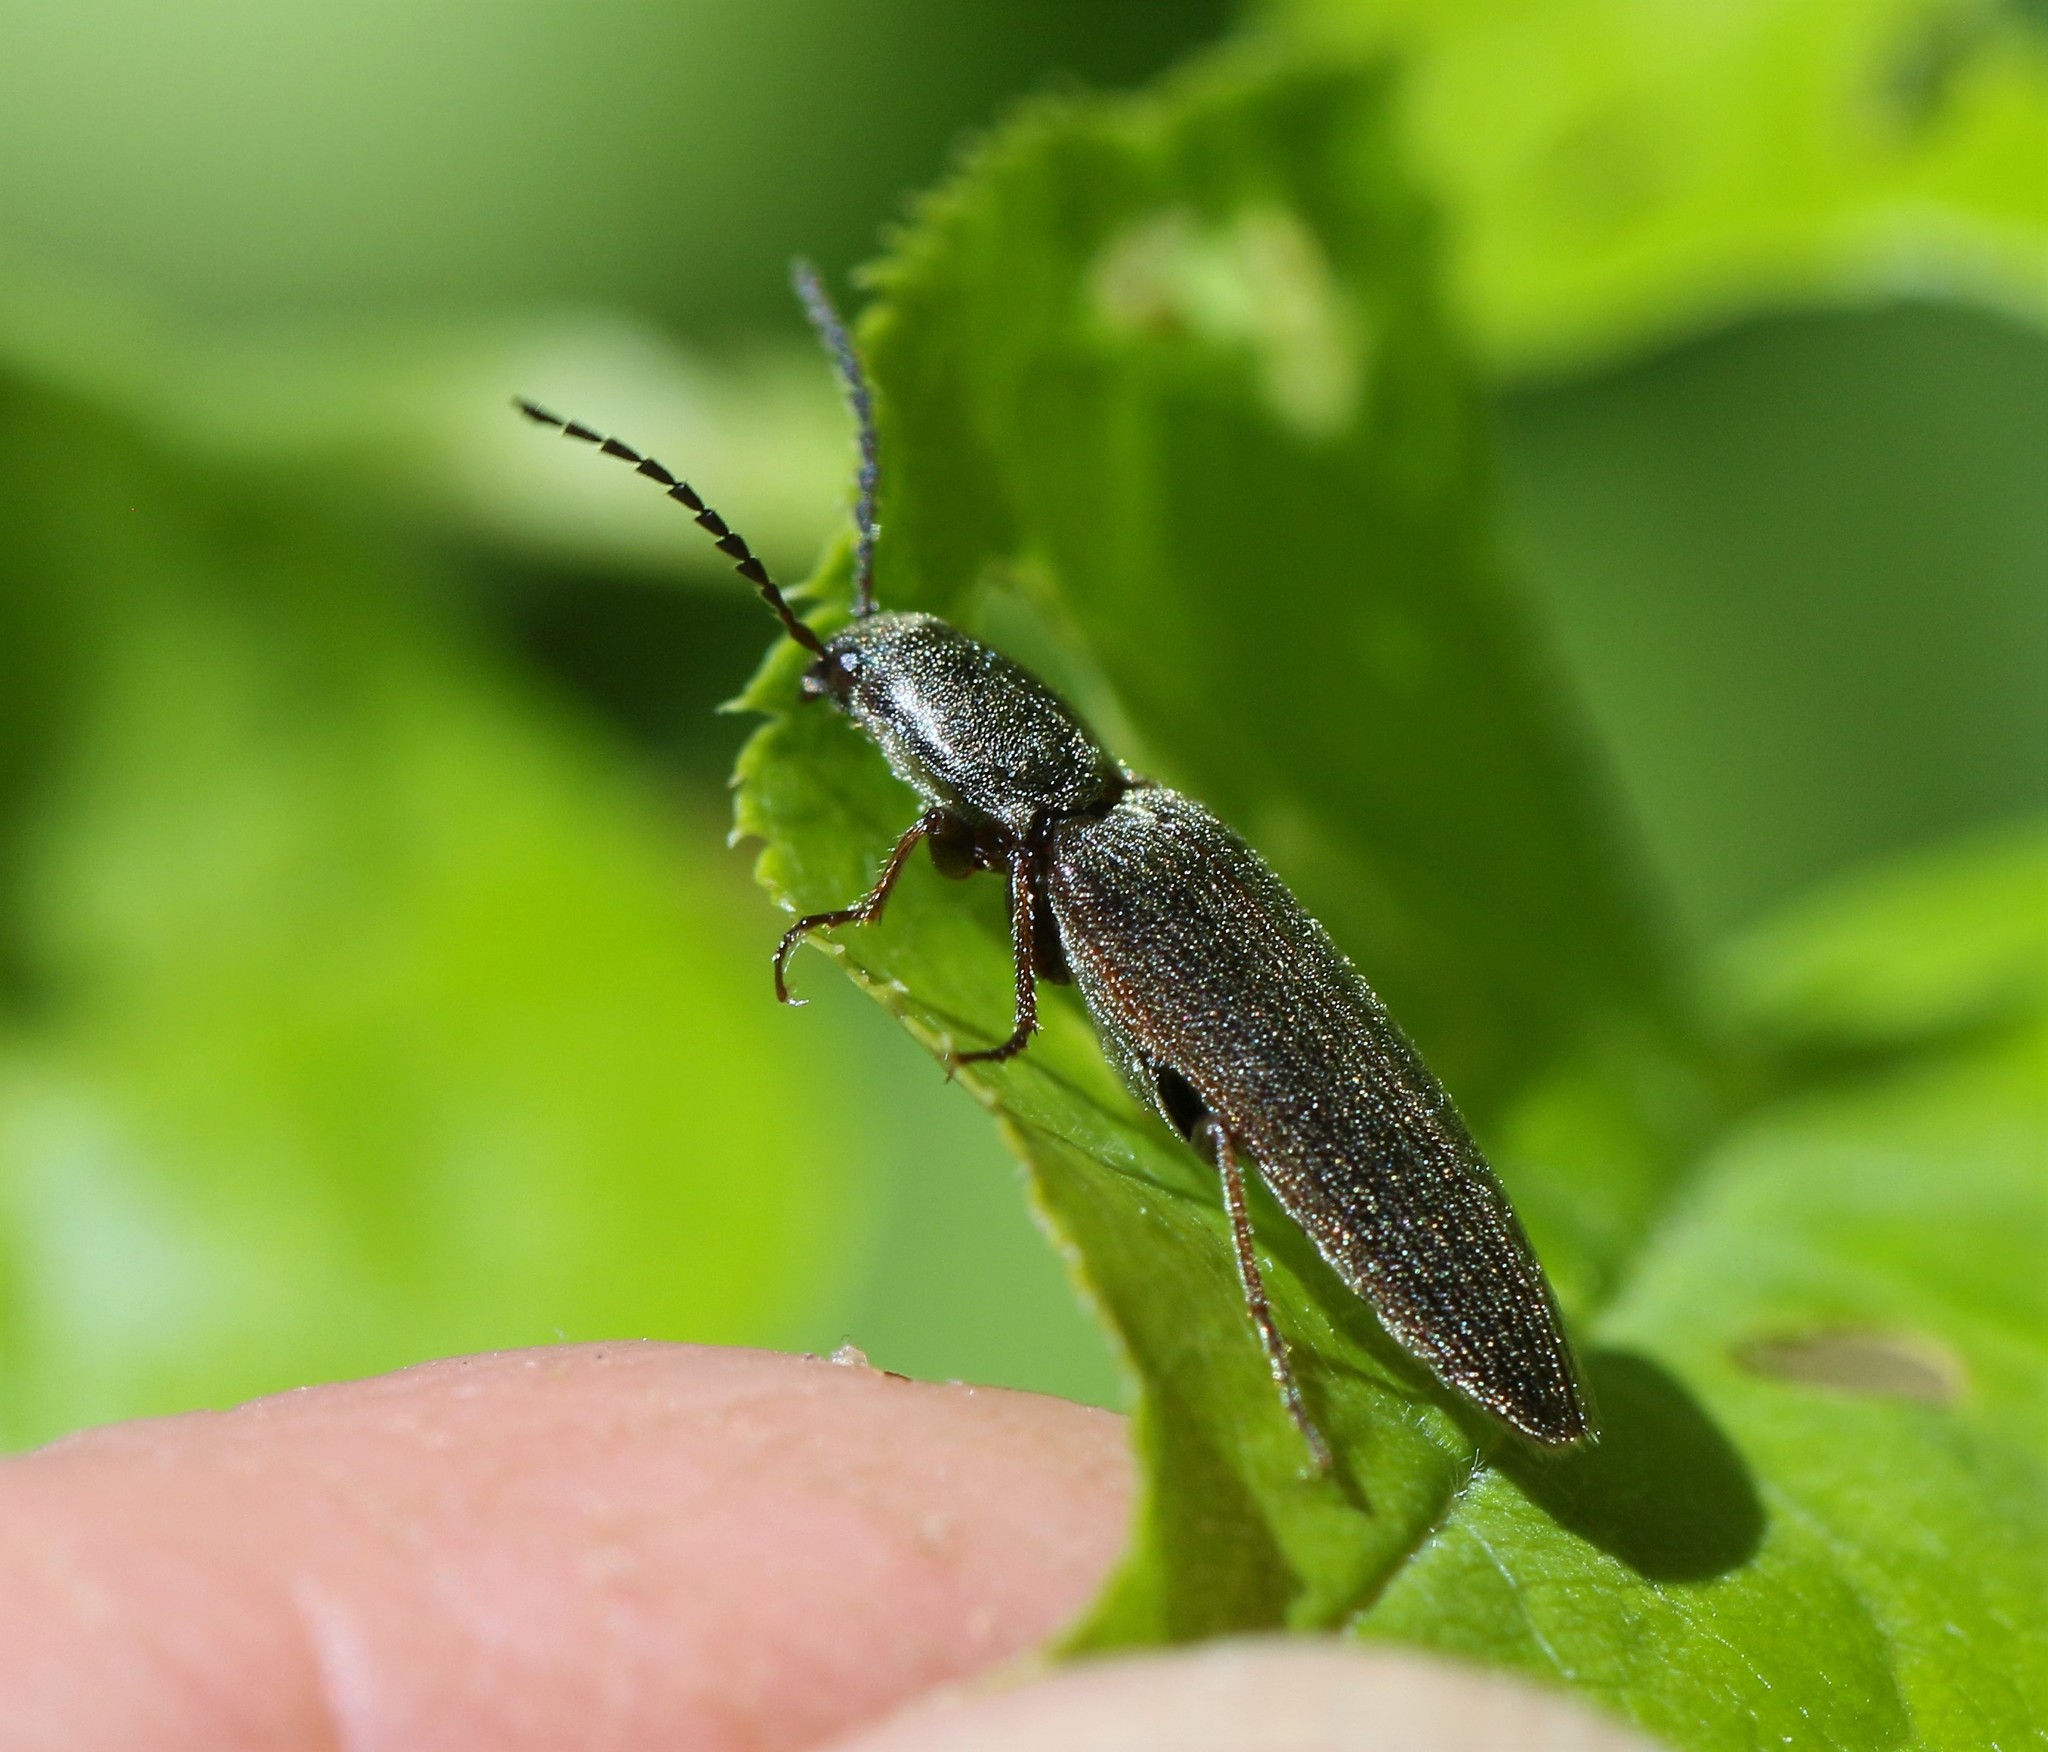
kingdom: Animalia
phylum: Arthropoda
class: Insecta
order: Coleoptera
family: Elateridae
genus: Sylvanelater
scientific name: Sylvanelater cylindriformis
